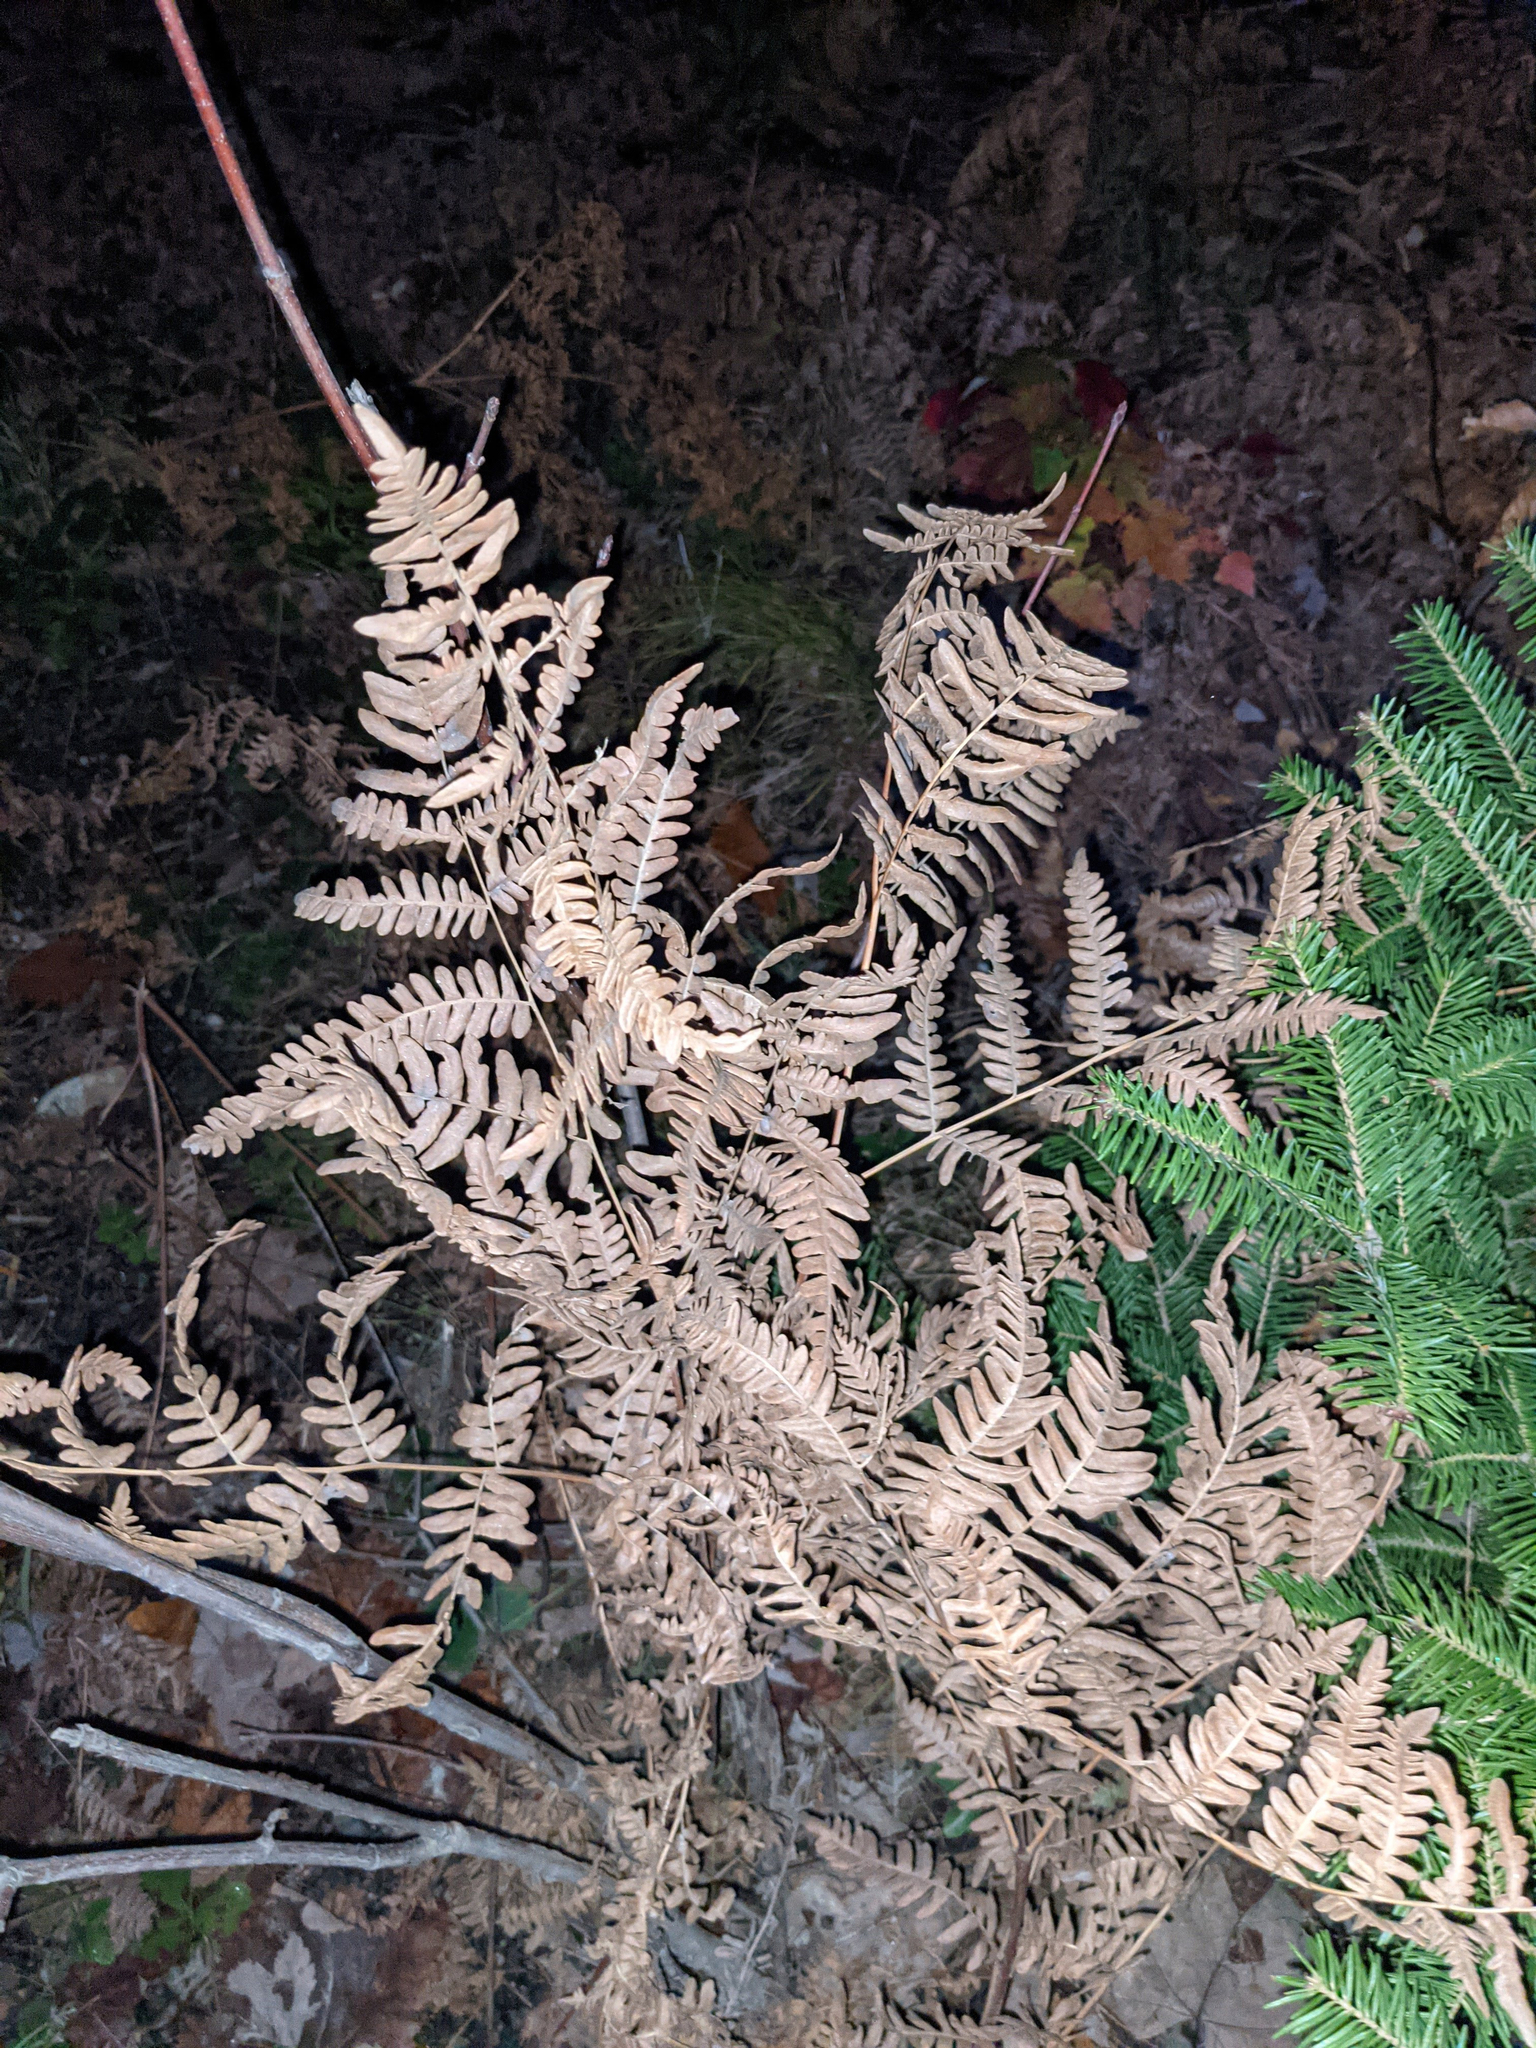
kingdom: Plantae
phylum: Tracheophyta
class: Polypodiopsida
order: Polypodiales
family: Dennstaedtiaceae
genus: Pteridium
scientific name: Pteridium aquilinum
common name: Bracken
